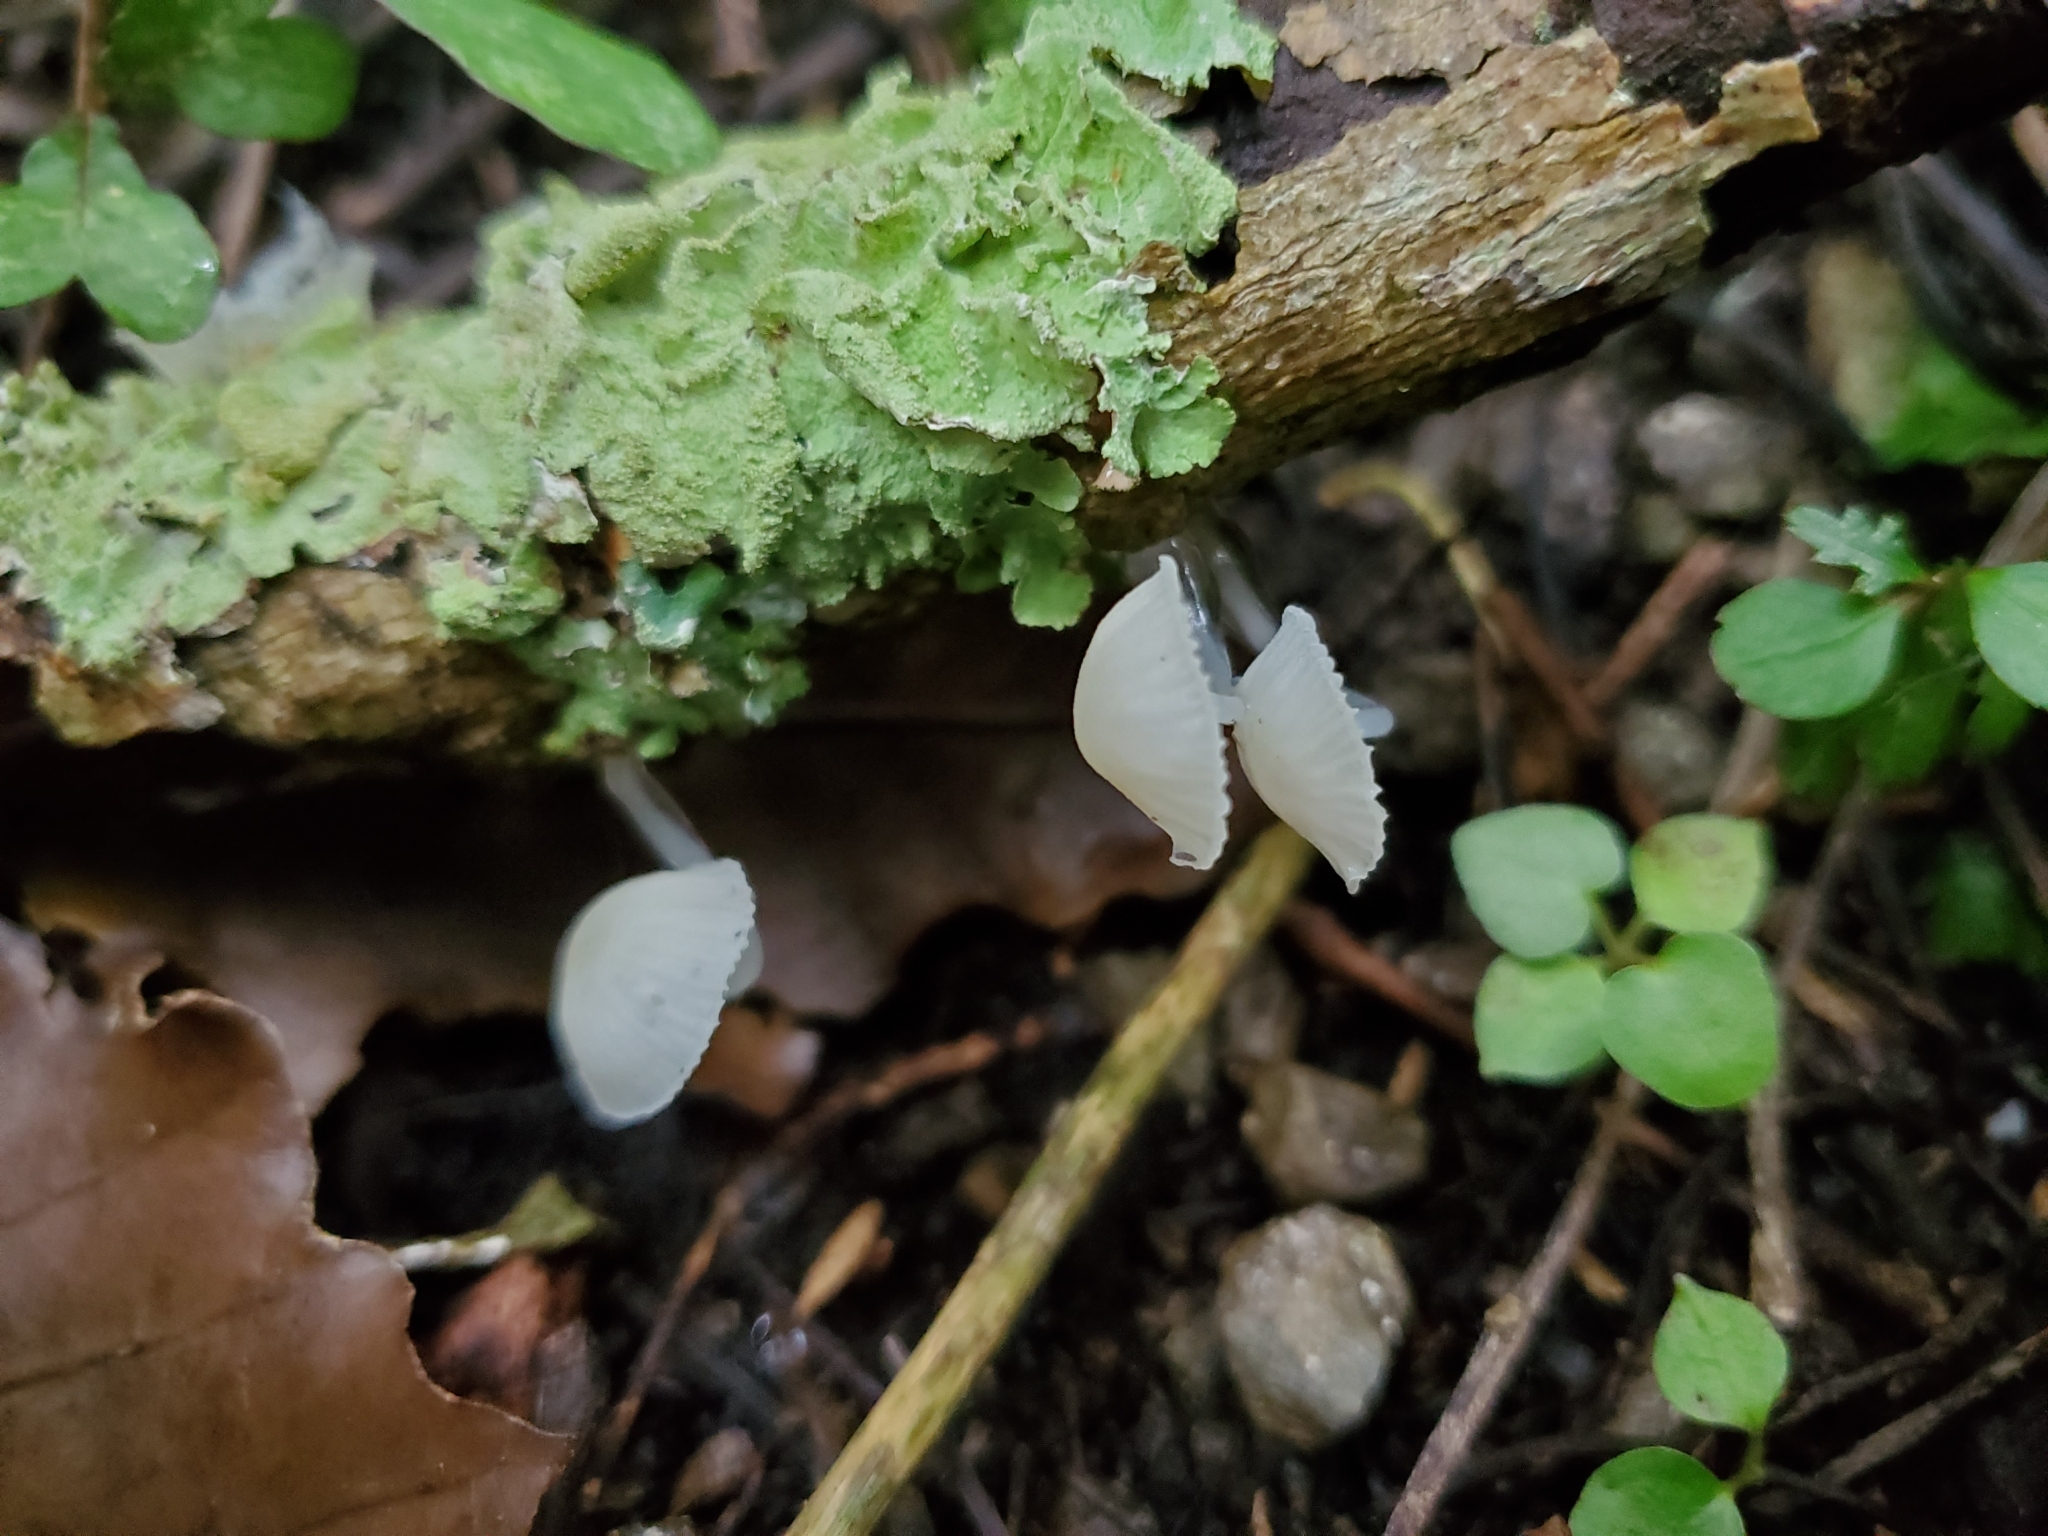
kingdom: Fungi
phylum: Basidiomycota
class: Agaricomycetes
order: Agaricales
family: Mycenaceae
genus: Roridomyces
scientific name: Roridomyces austrororidus
